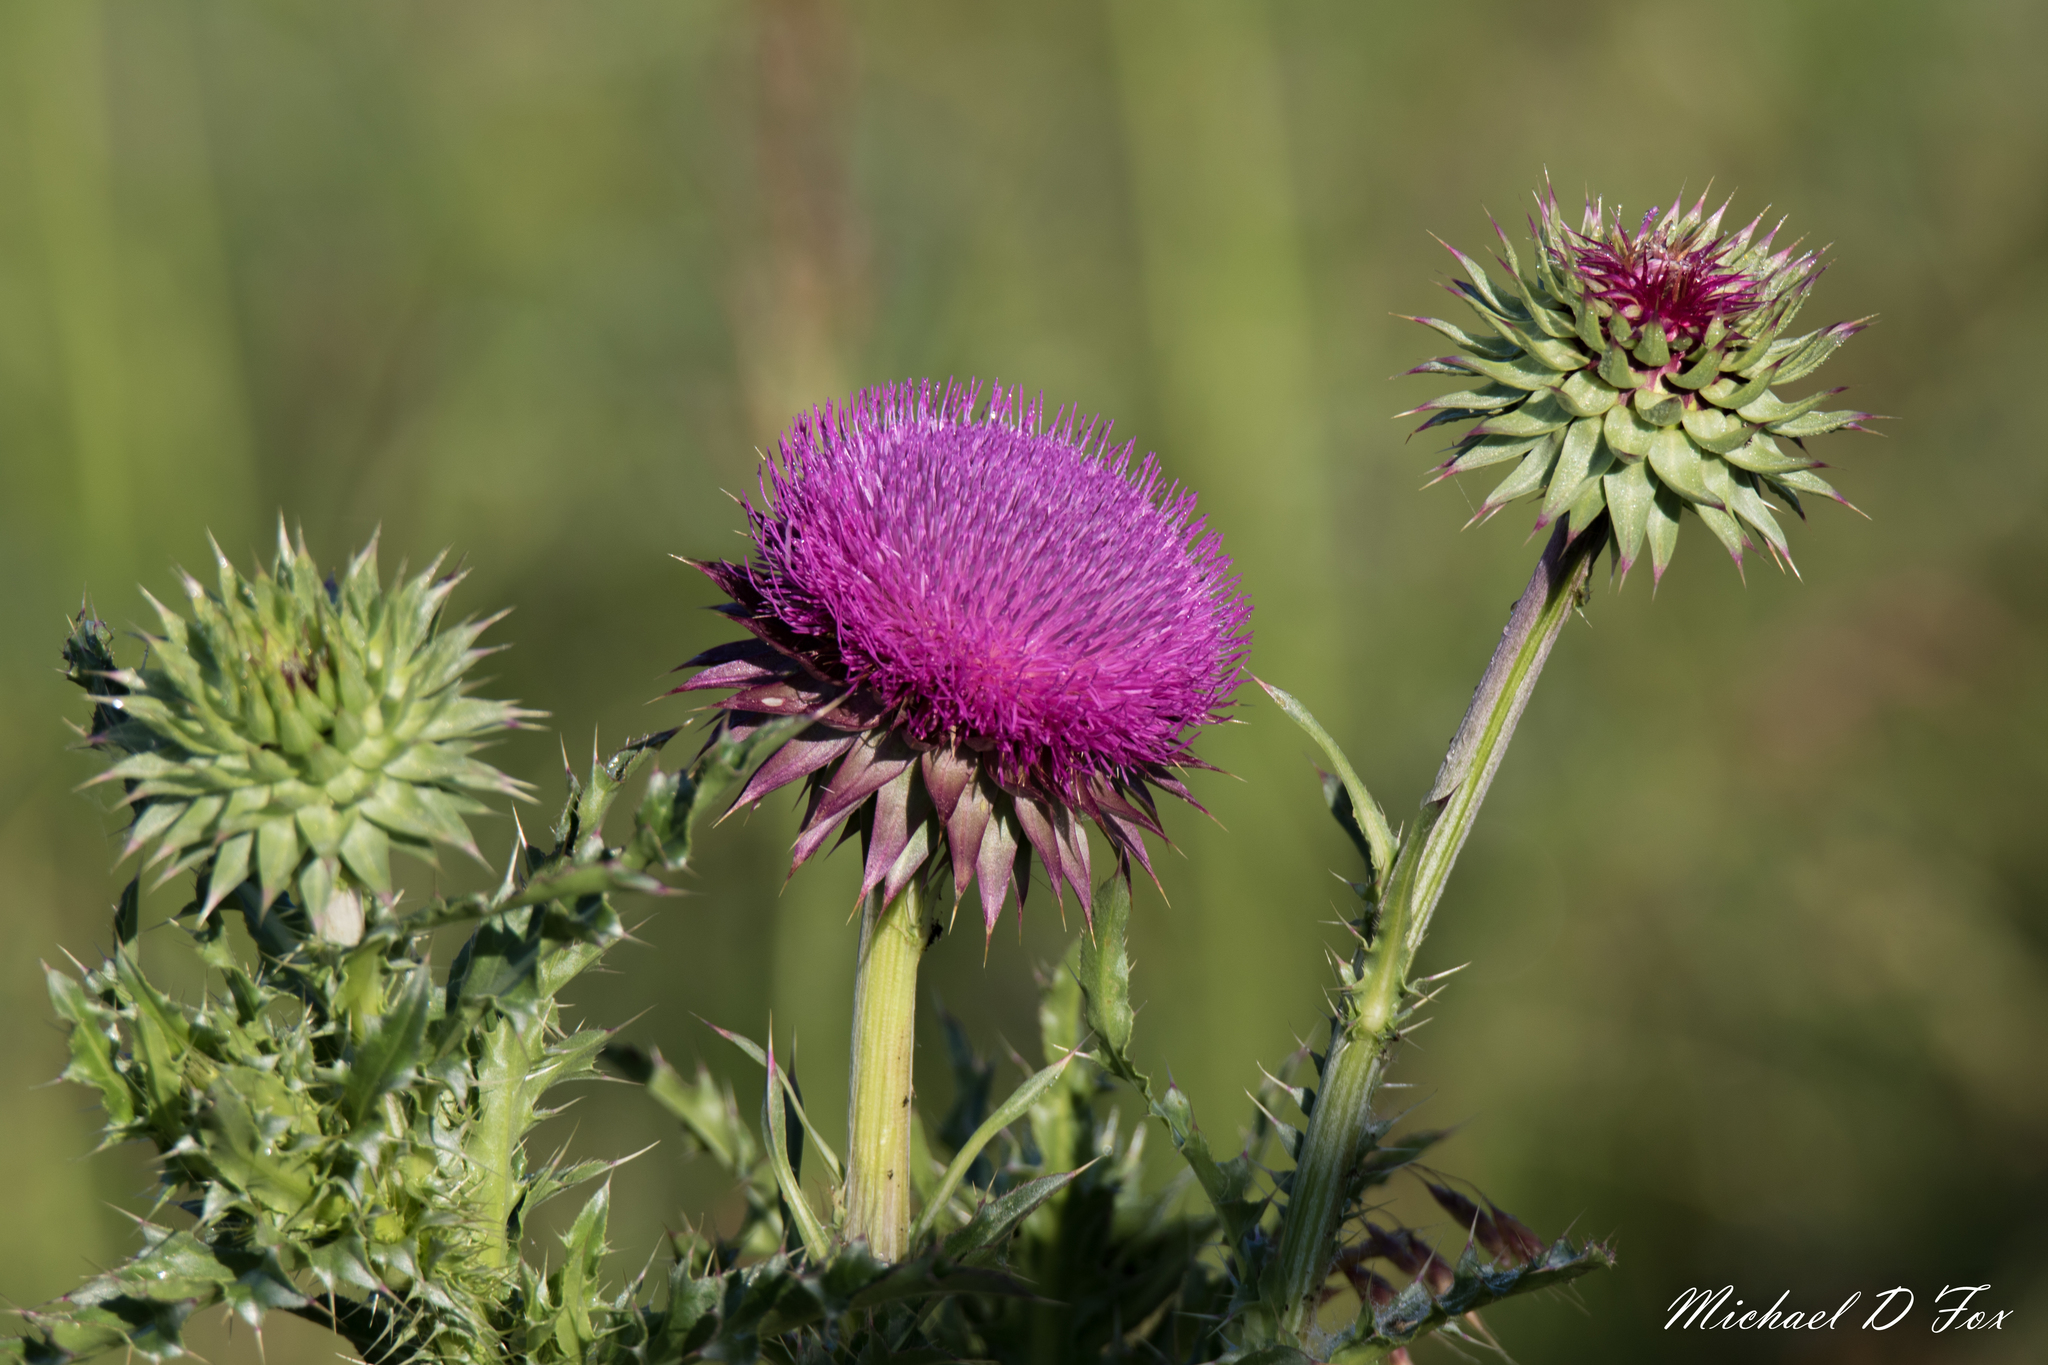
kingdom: Plantae
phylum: Tracheophyta
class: Magnoliopsida
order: Asterales
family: Asteraceae
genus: Carduus
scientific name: Carduus nutans
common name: Musk thistle
